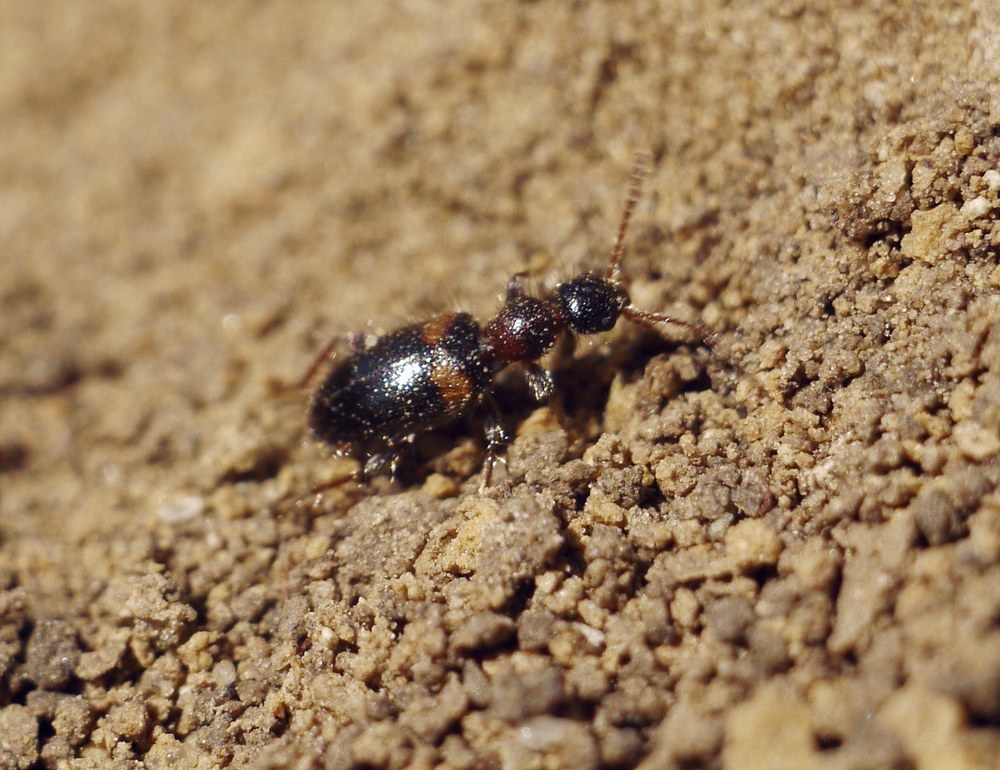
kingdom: Animalia
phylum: Arthropoda
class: Insecta
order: Coleoptera
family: Anthicidae
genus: Hirticollis
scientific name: Hirticollis hispidus
